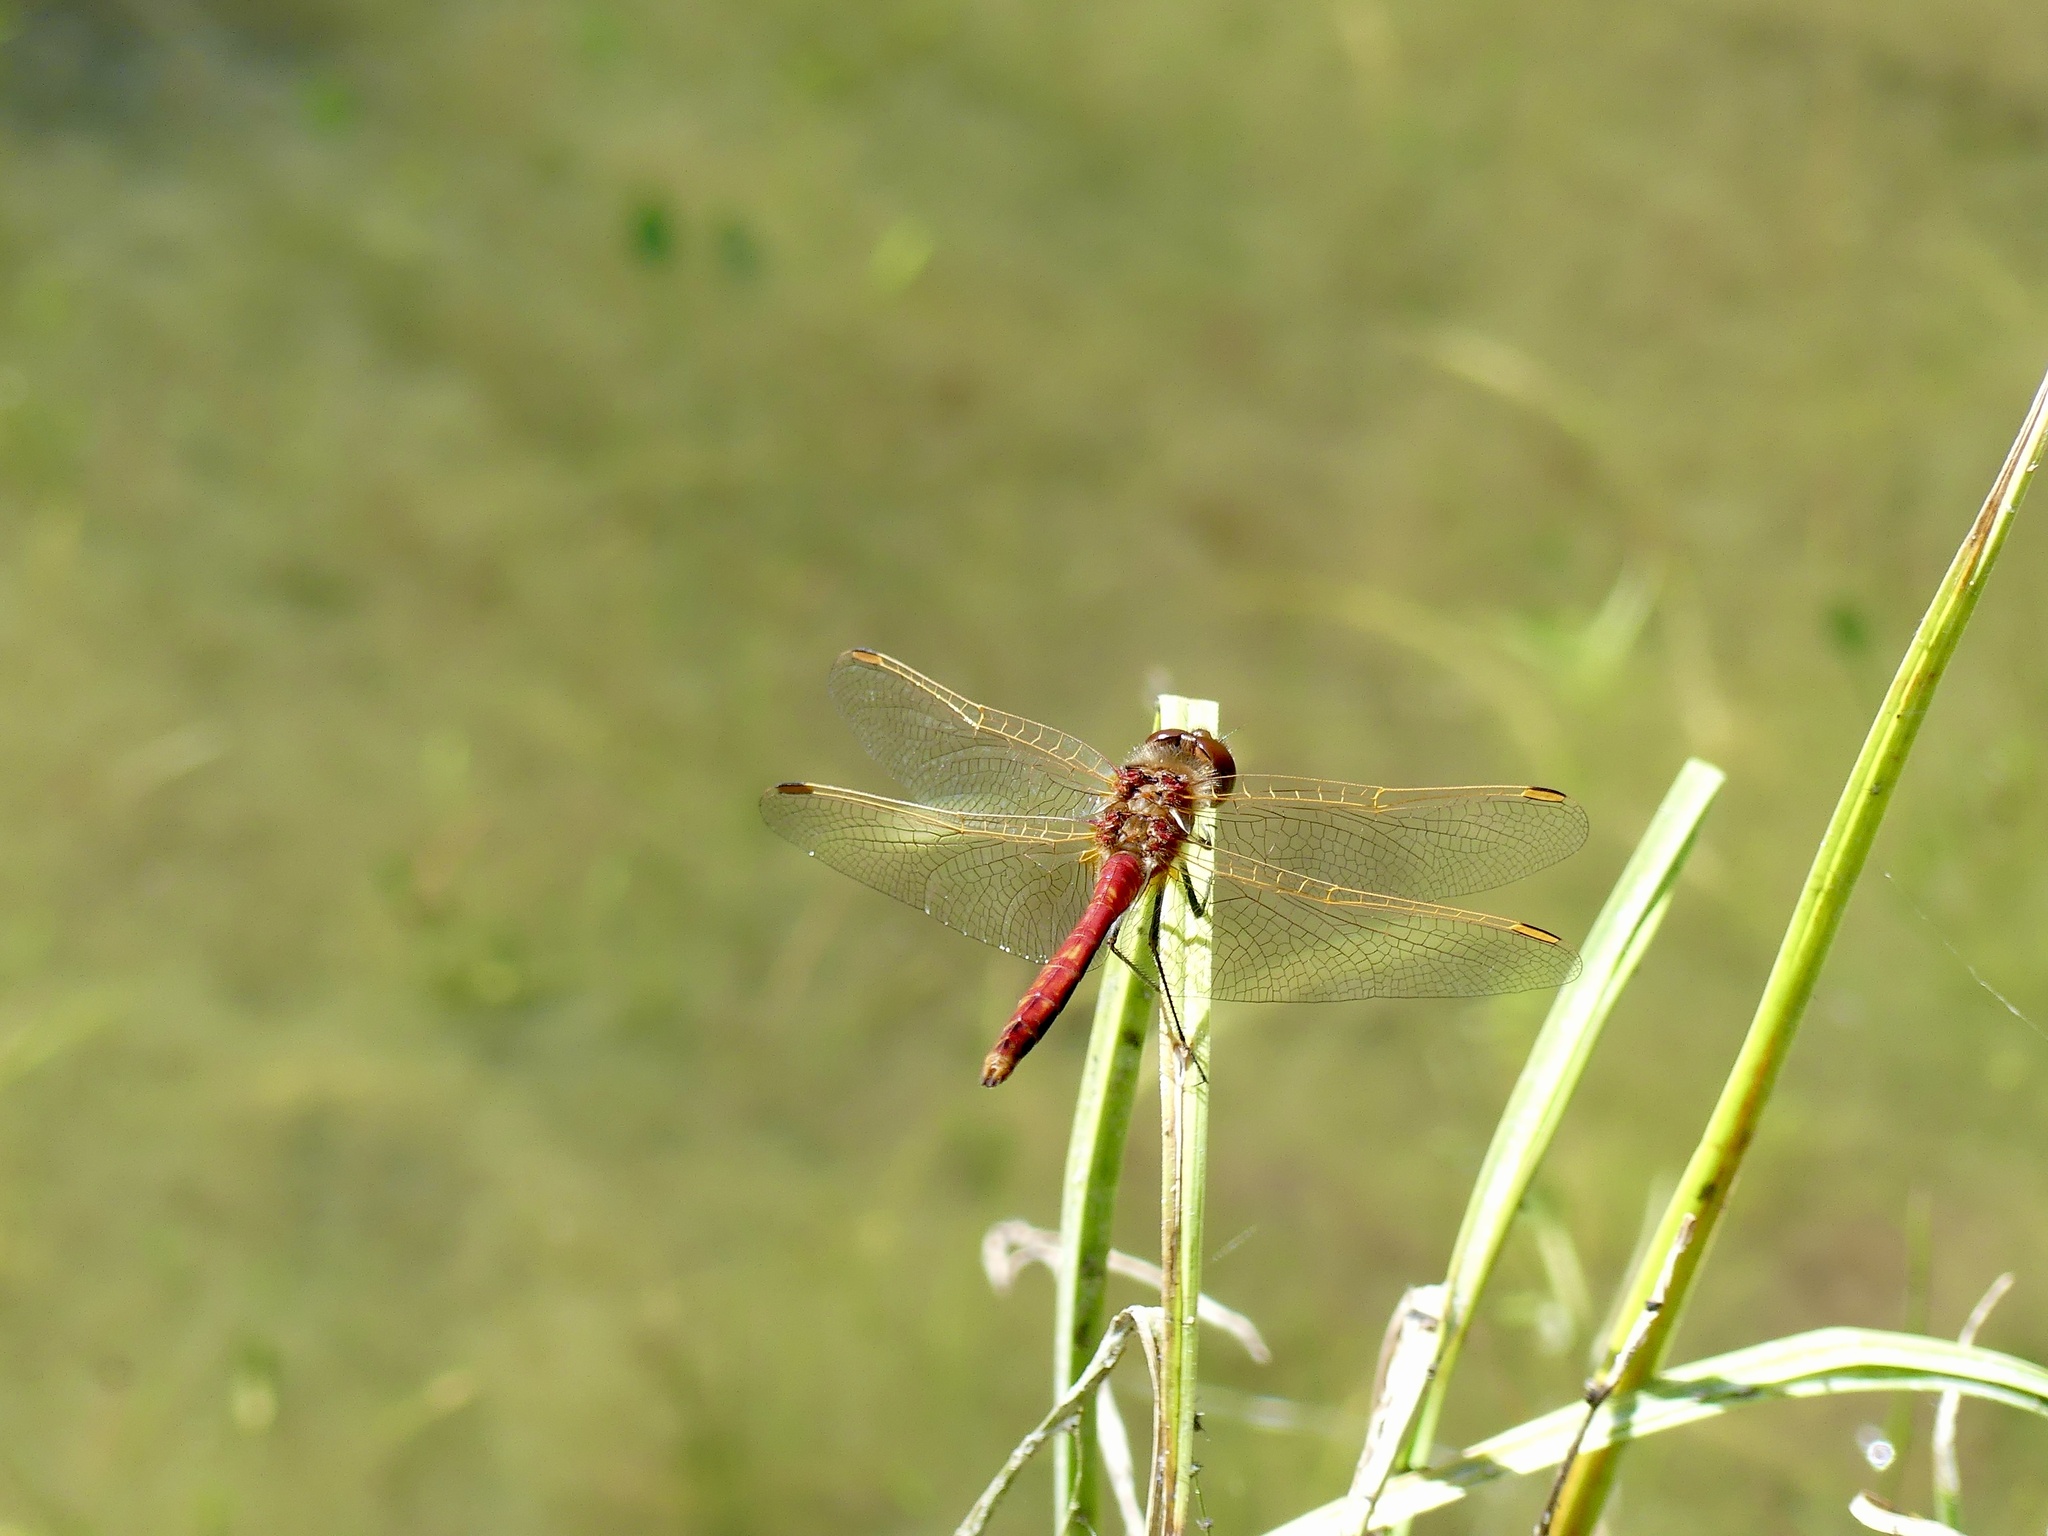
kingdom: Animalia
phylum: Arthropoda
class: Insecta
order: Odonata
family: Libellulidae
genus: Sympetrum
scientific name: Sympetrum costiferum
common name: Saffron-winged meadowhawk
